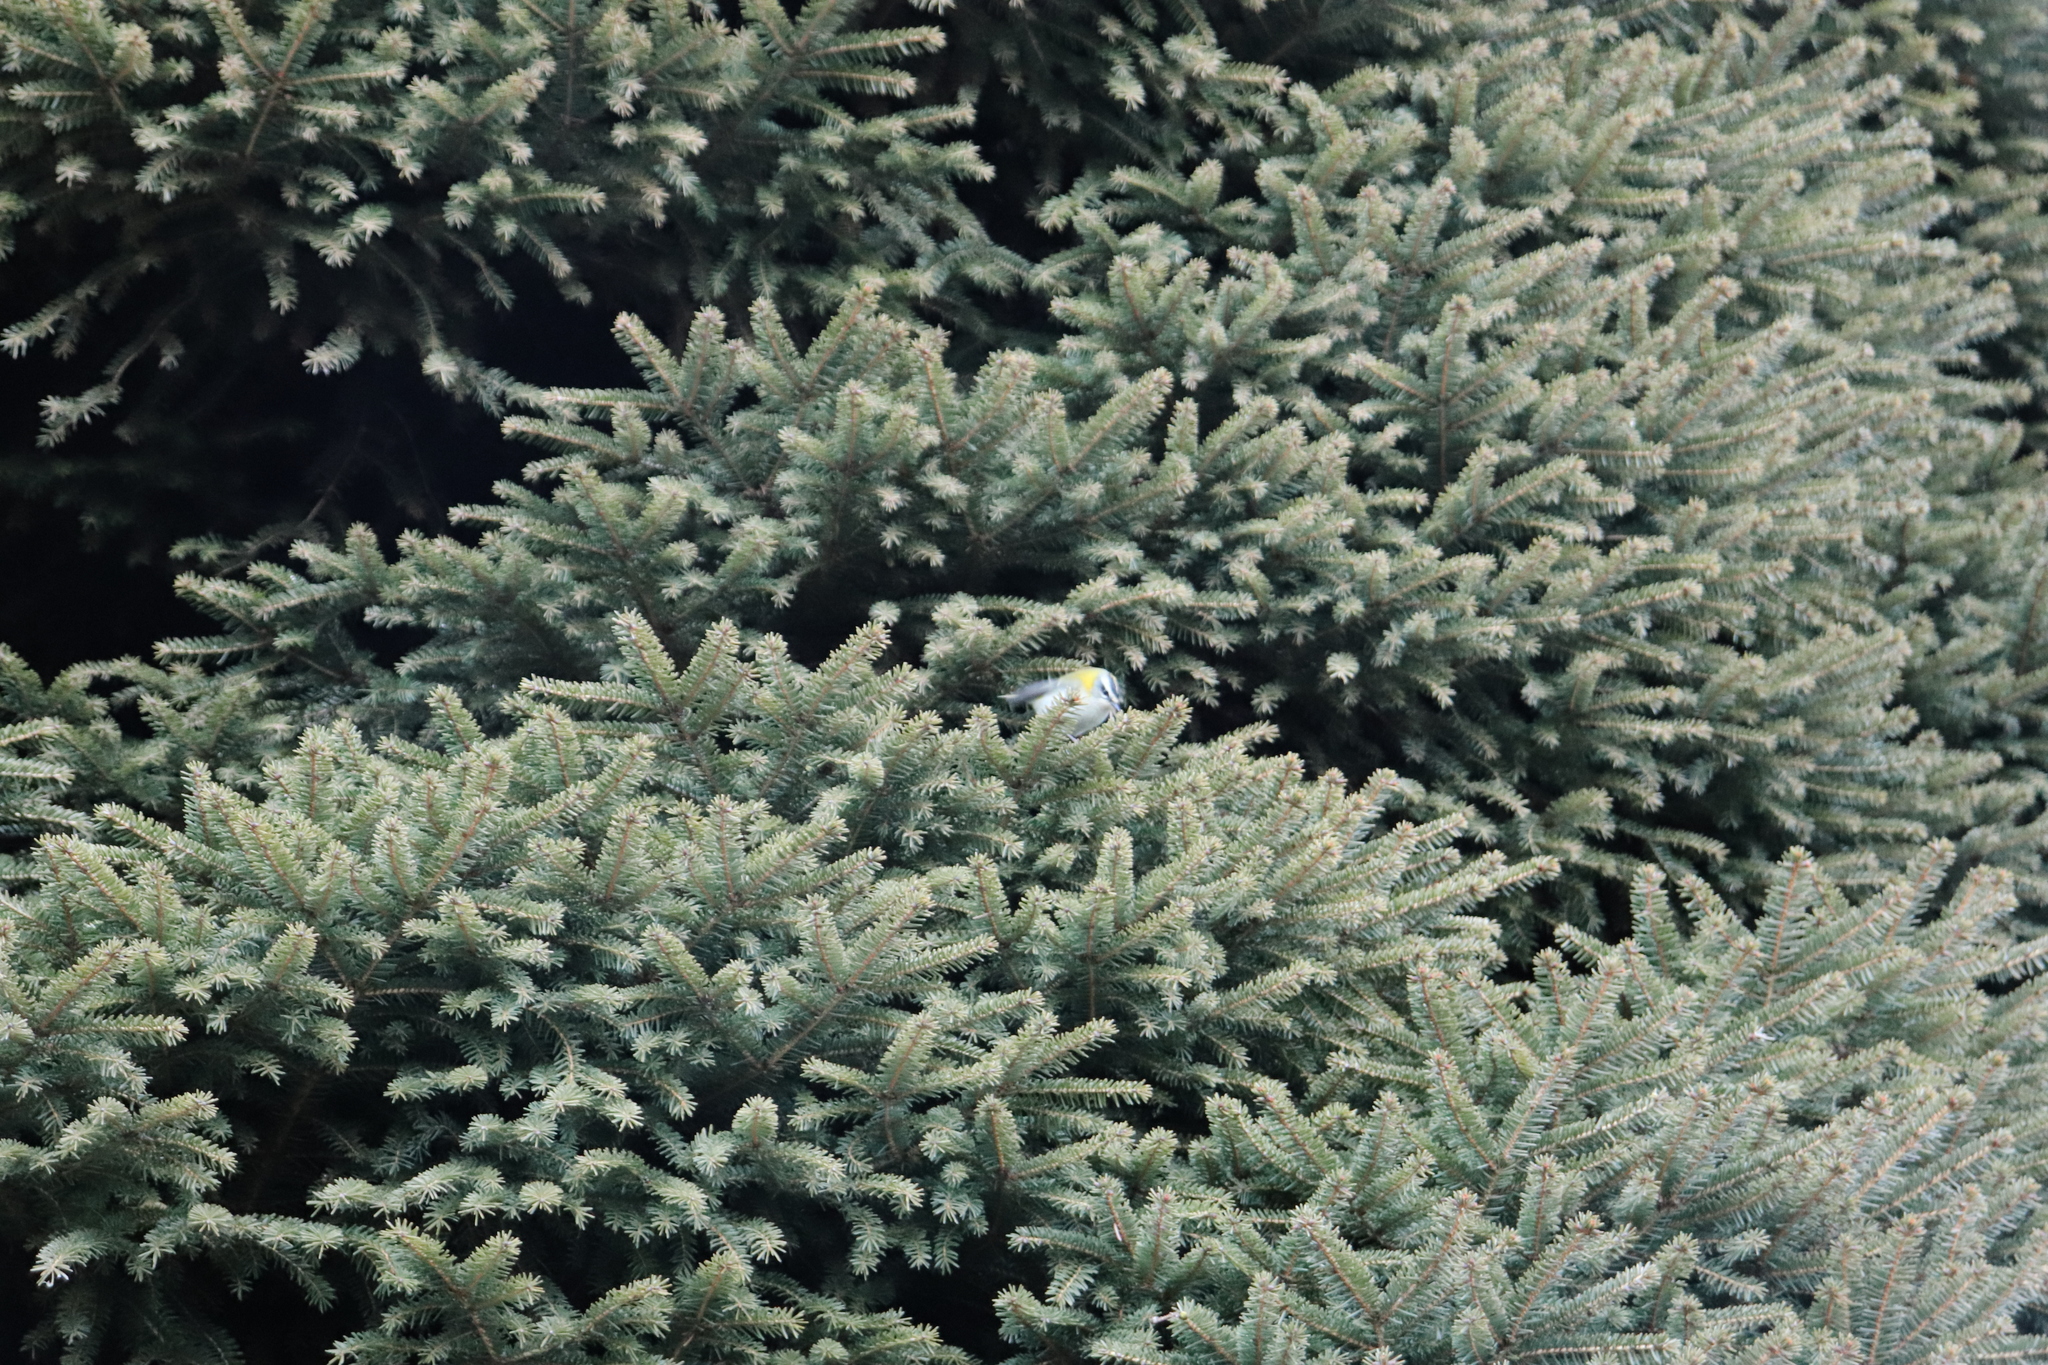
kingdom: Animalia
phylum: Chordata
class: Aves
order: Passeriformes
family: Regulidae
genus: Regulus
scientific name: Regulus ignicapilla
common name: Firecrest
